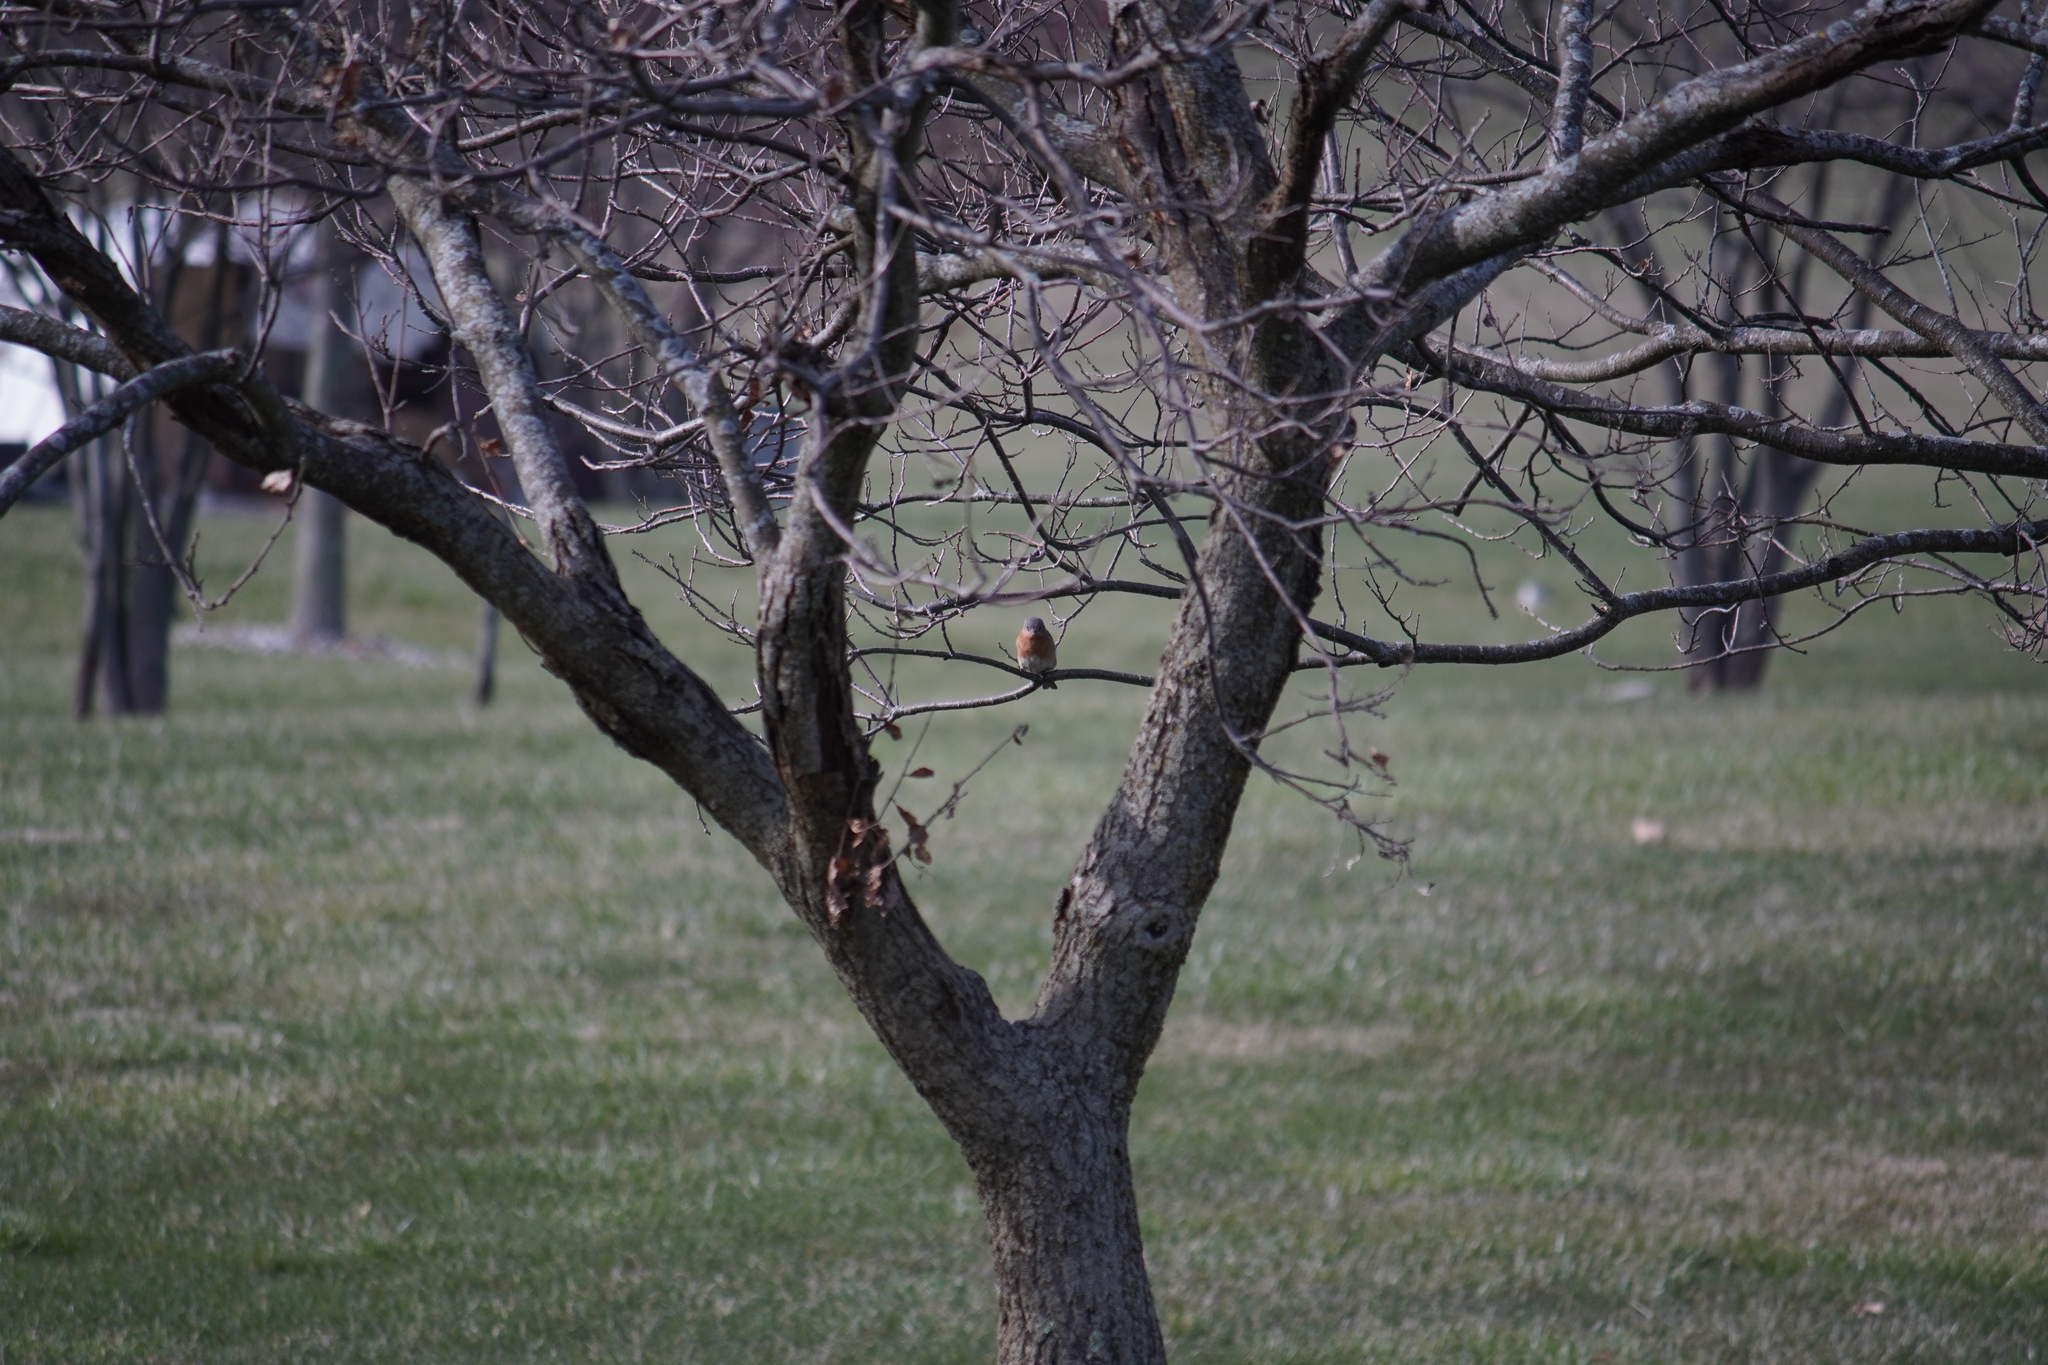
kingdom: Animalia
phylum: Chordata
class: Aves
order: Passeriformes
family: Turdidae
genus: Sialia
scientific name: Sialia sialis
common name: Eastern bluebird
